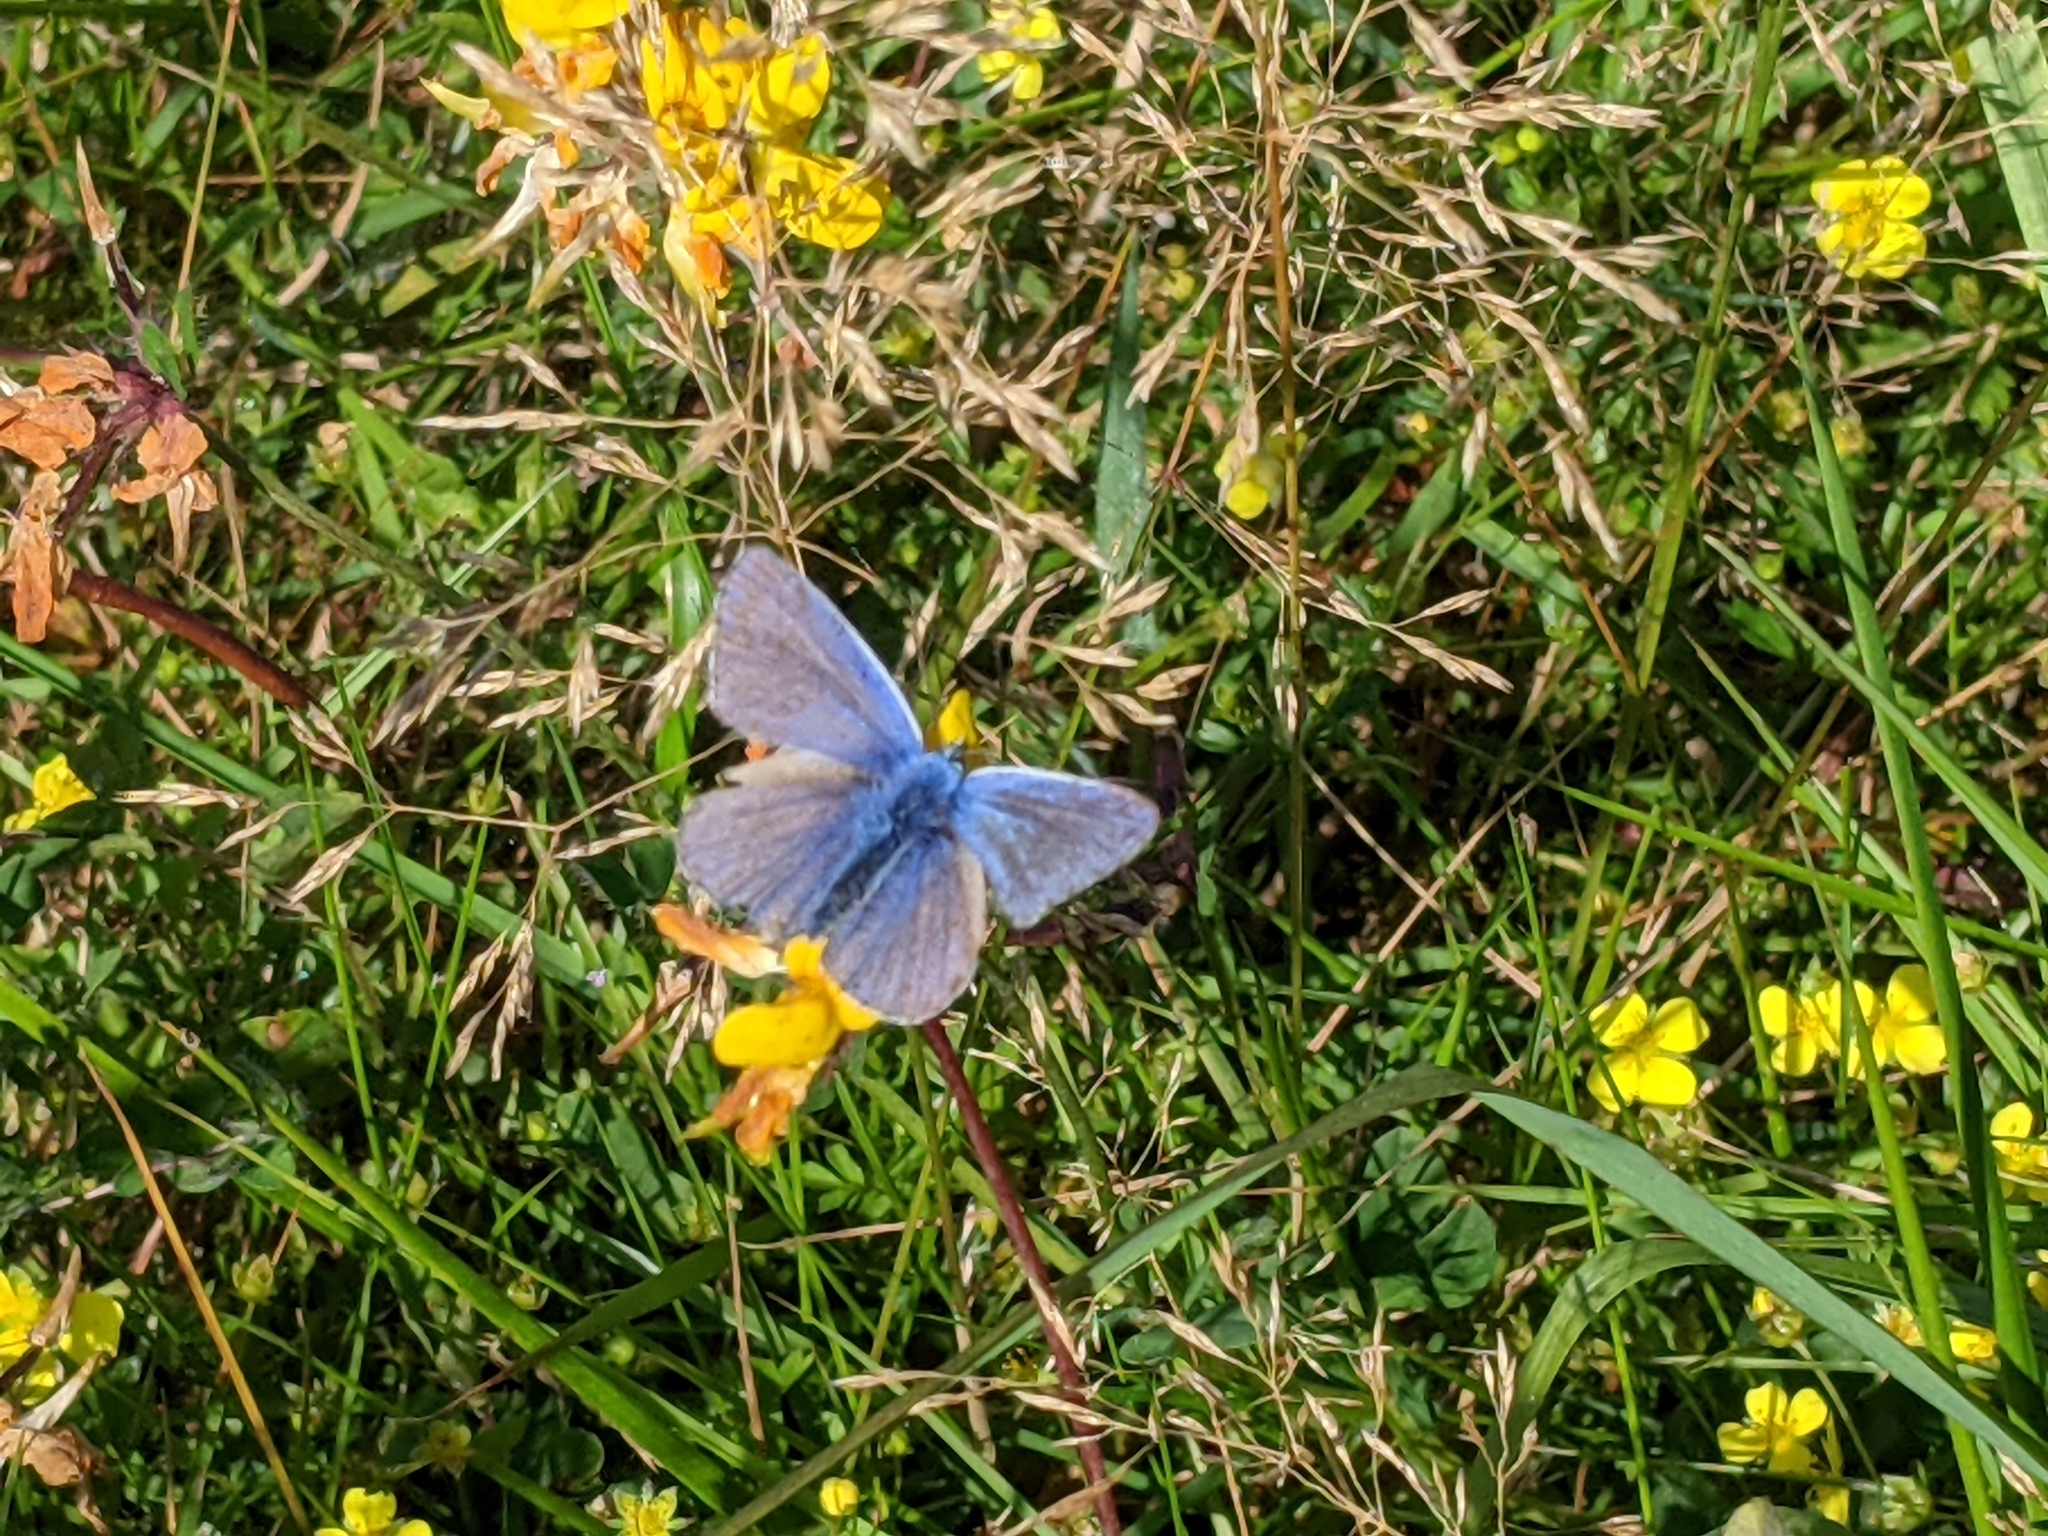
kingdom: Animalia
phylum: Arthropoda
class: Insecta
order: Lepidoptera
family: Lycaenidae
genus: Polyommatus
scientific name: Polyommatus icarus
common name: Common blue
